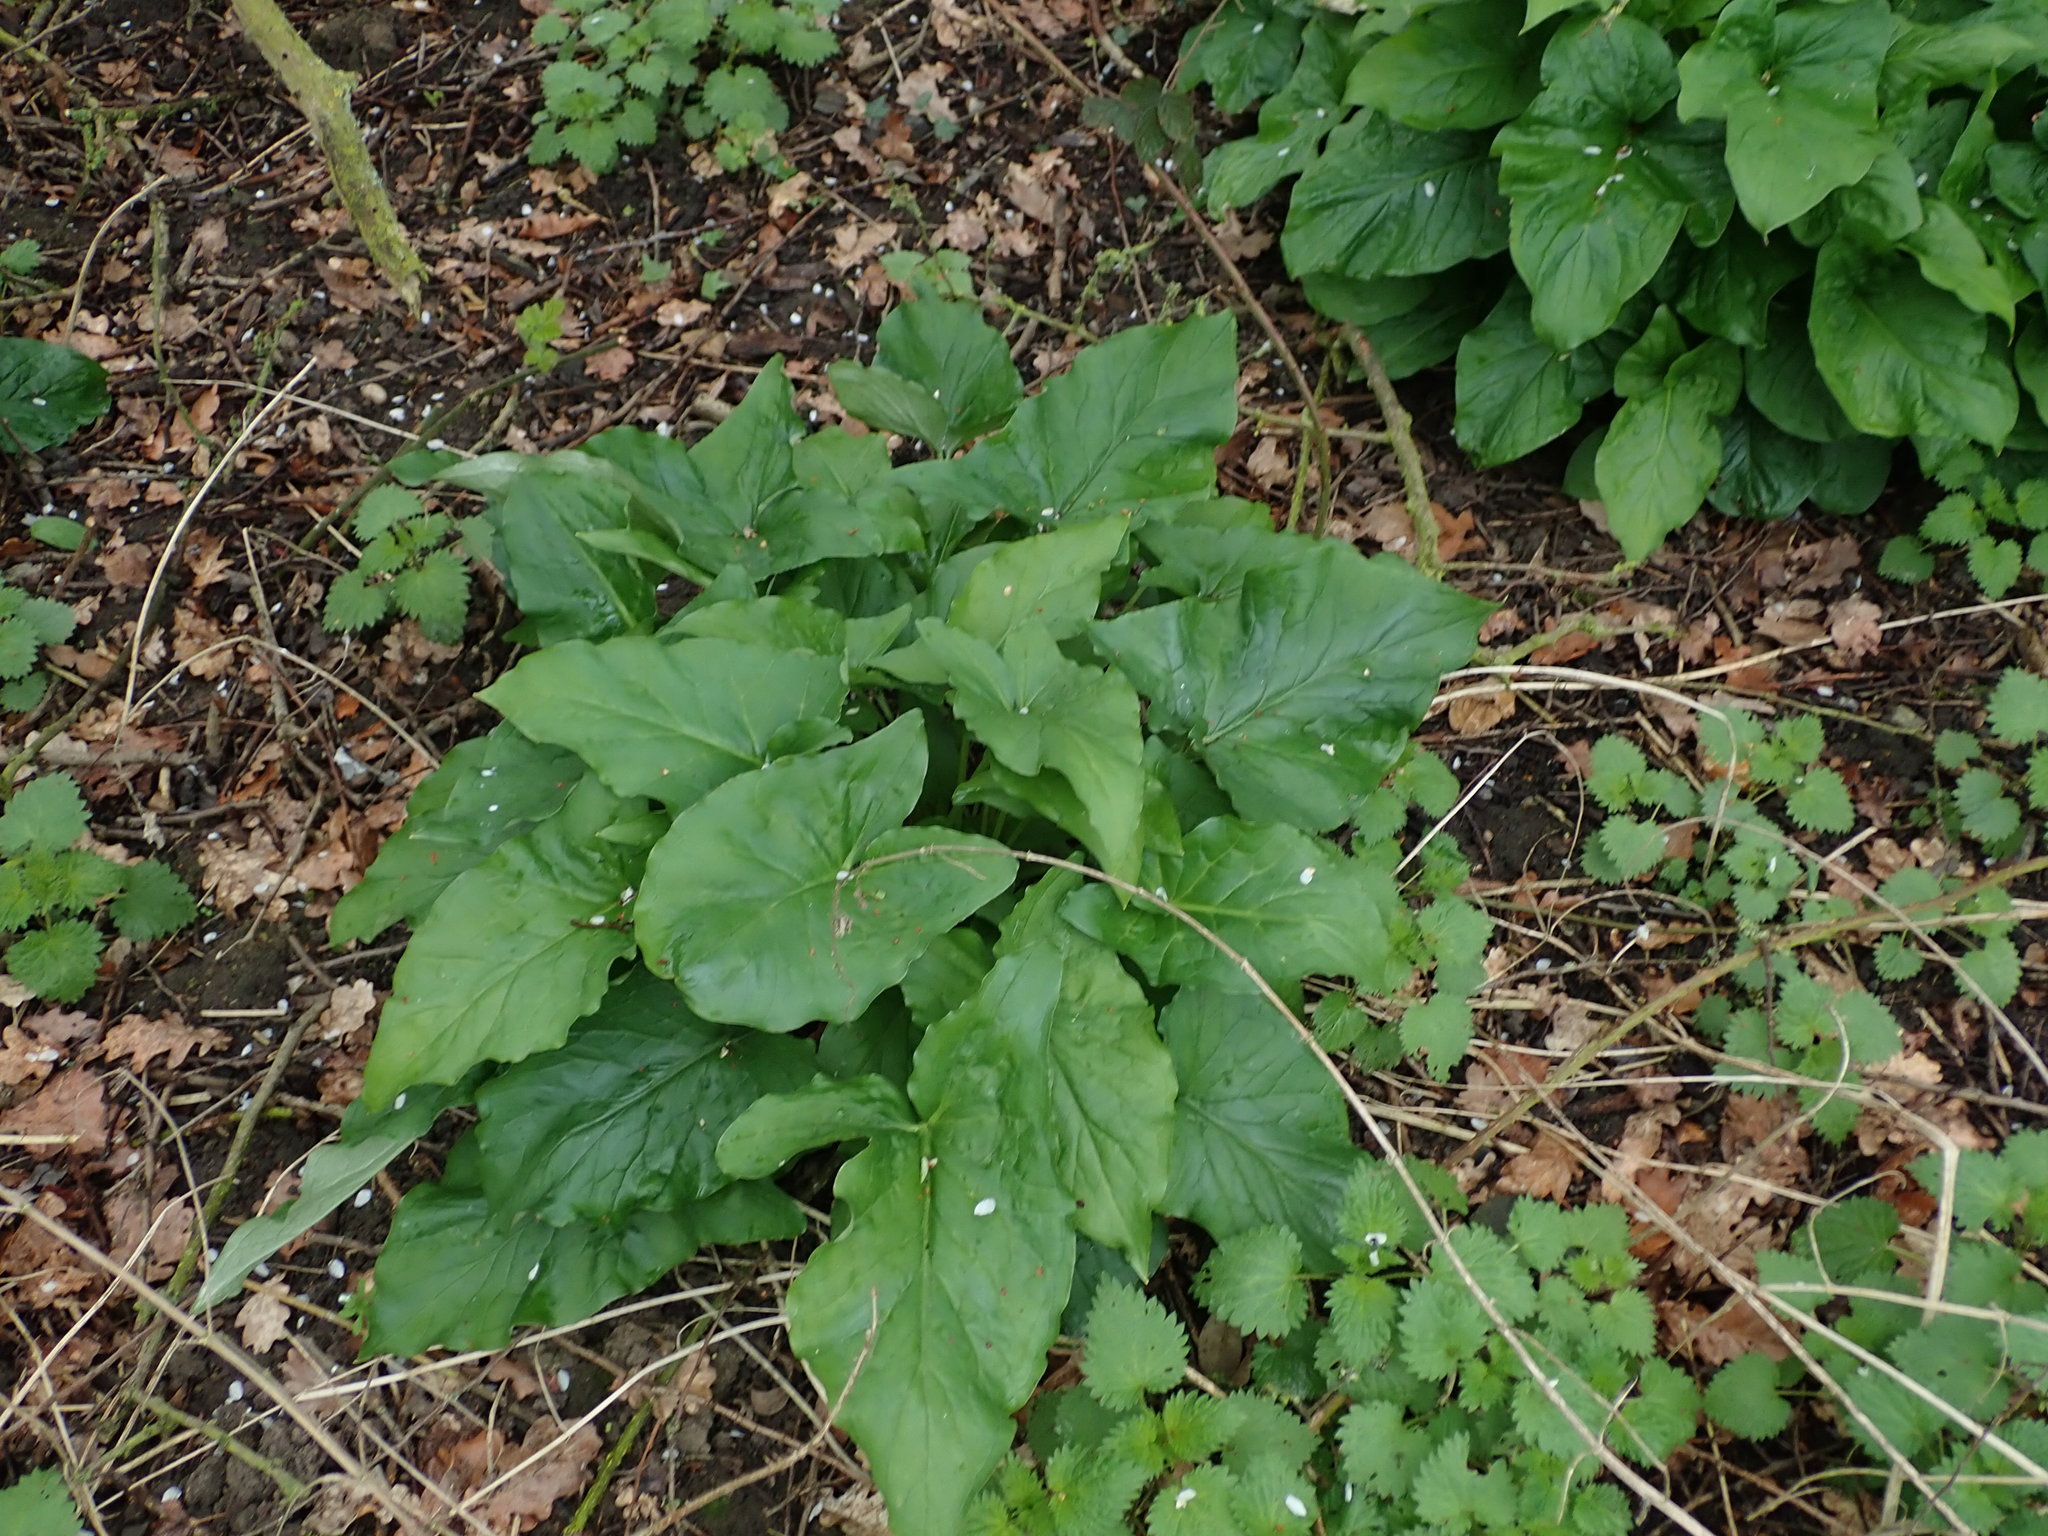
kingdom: Plantae
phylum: Tracheophyta
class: Liliopsida
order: Alismatales
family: Araceae
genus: Arum
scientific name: Arum maculatum
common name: Lords-and-ladies
